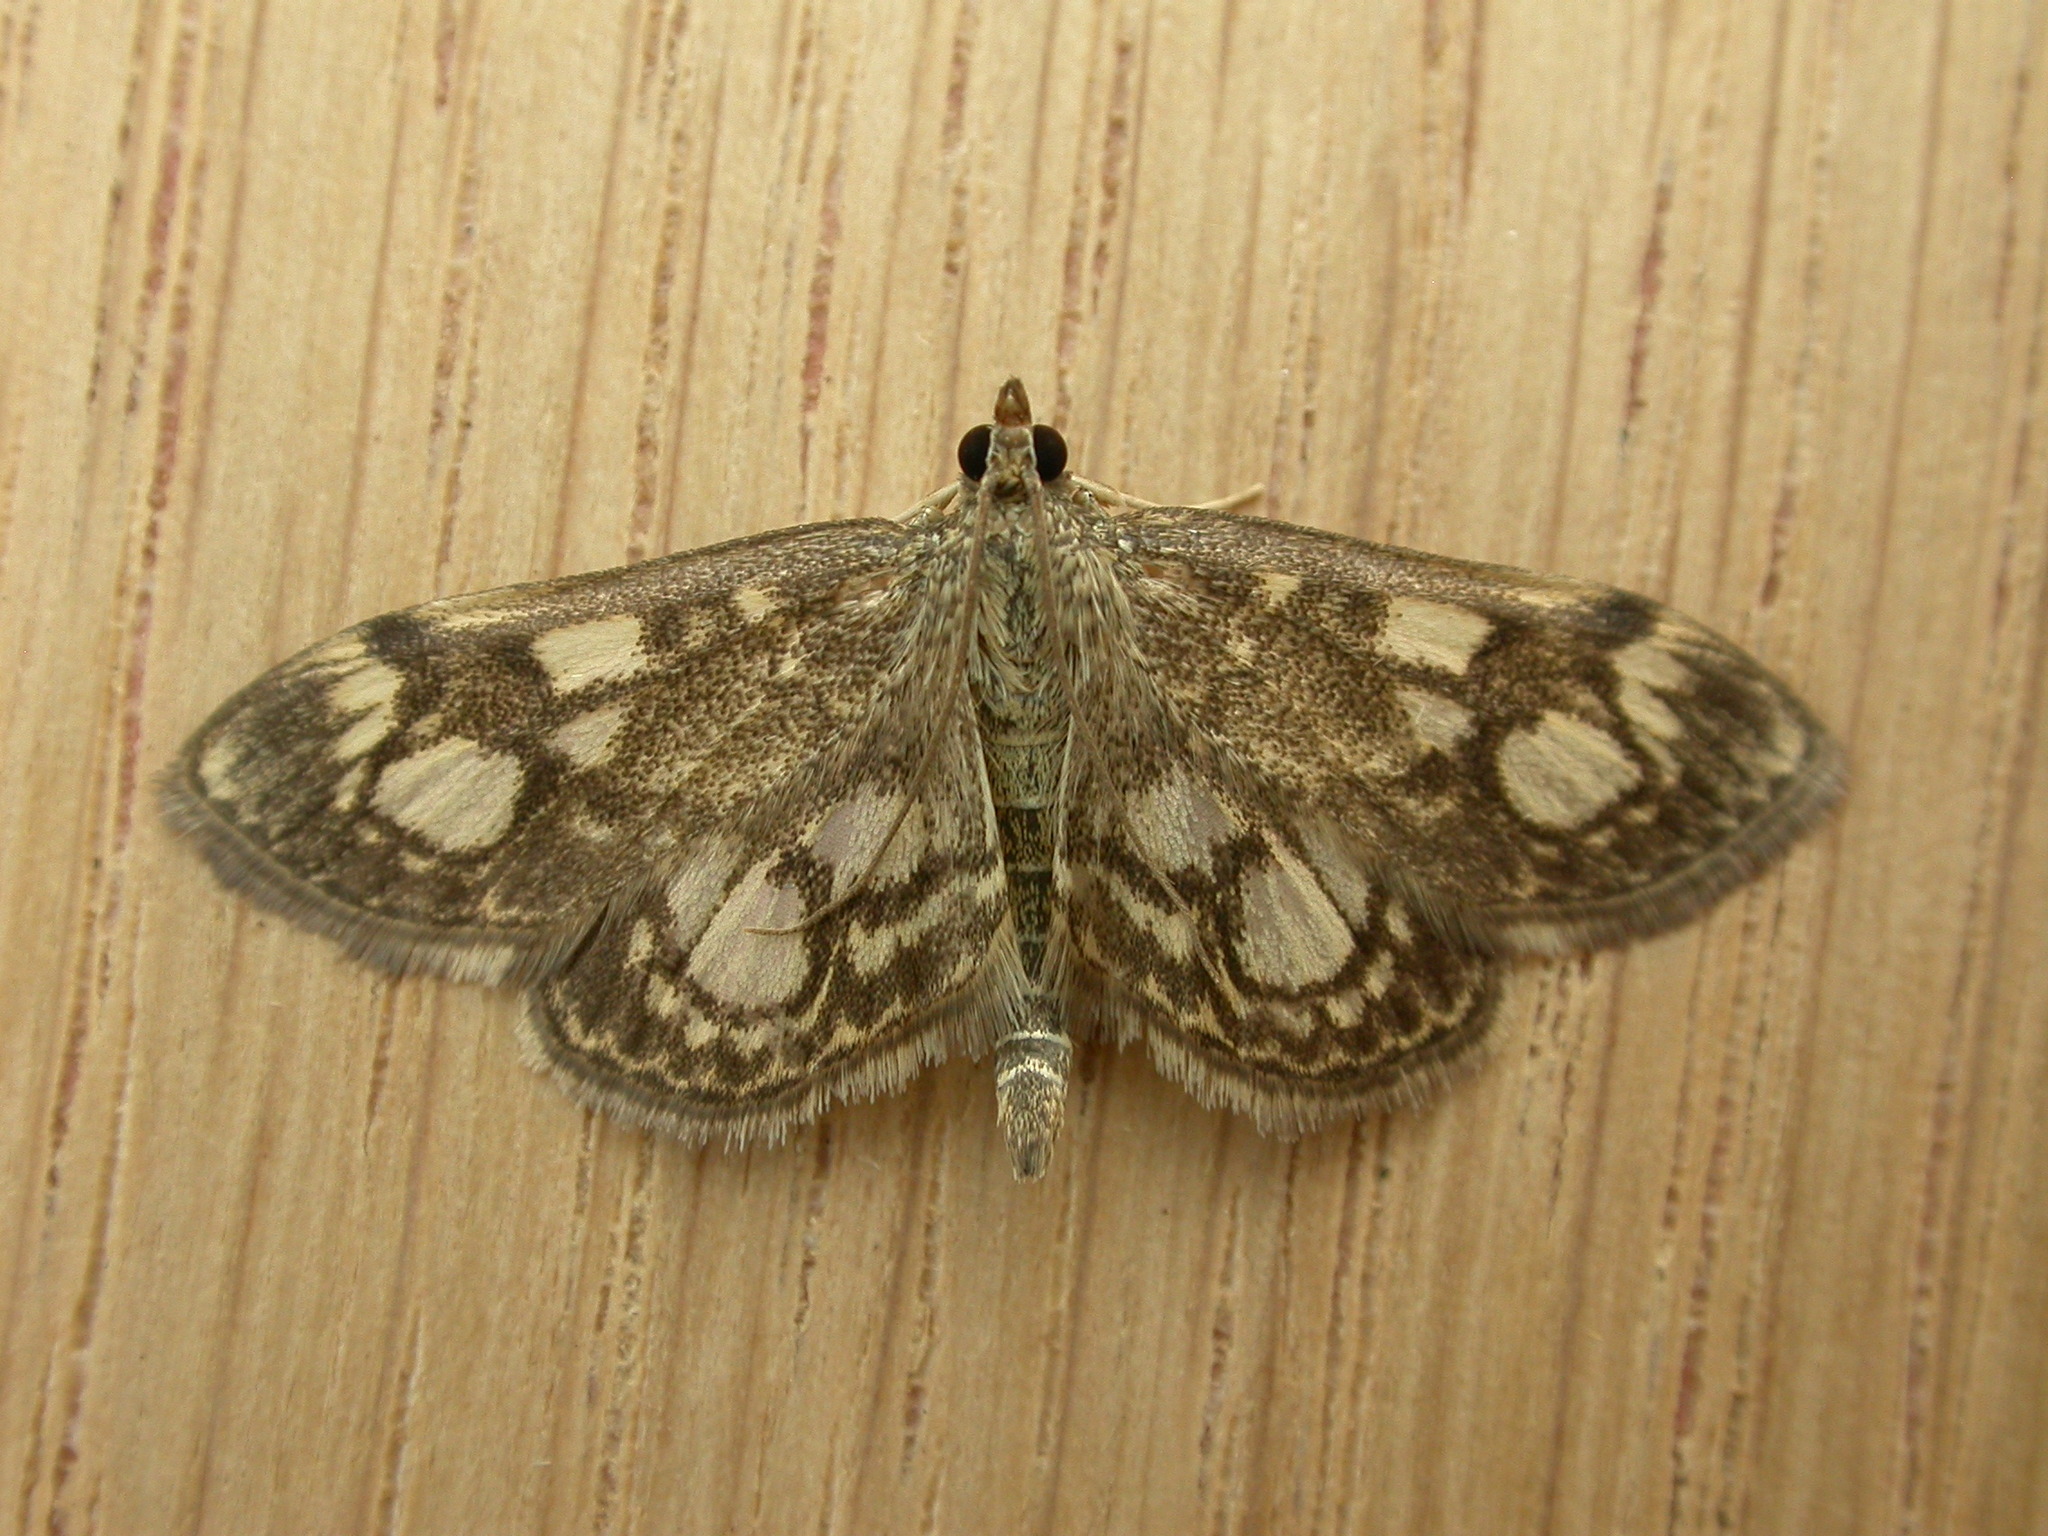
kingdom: Animalia
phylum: Arthropoda
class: Insecta
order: Lepidoptera
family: Crambidae
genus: Anania
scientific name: Anania coronata
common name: Elder pearl
